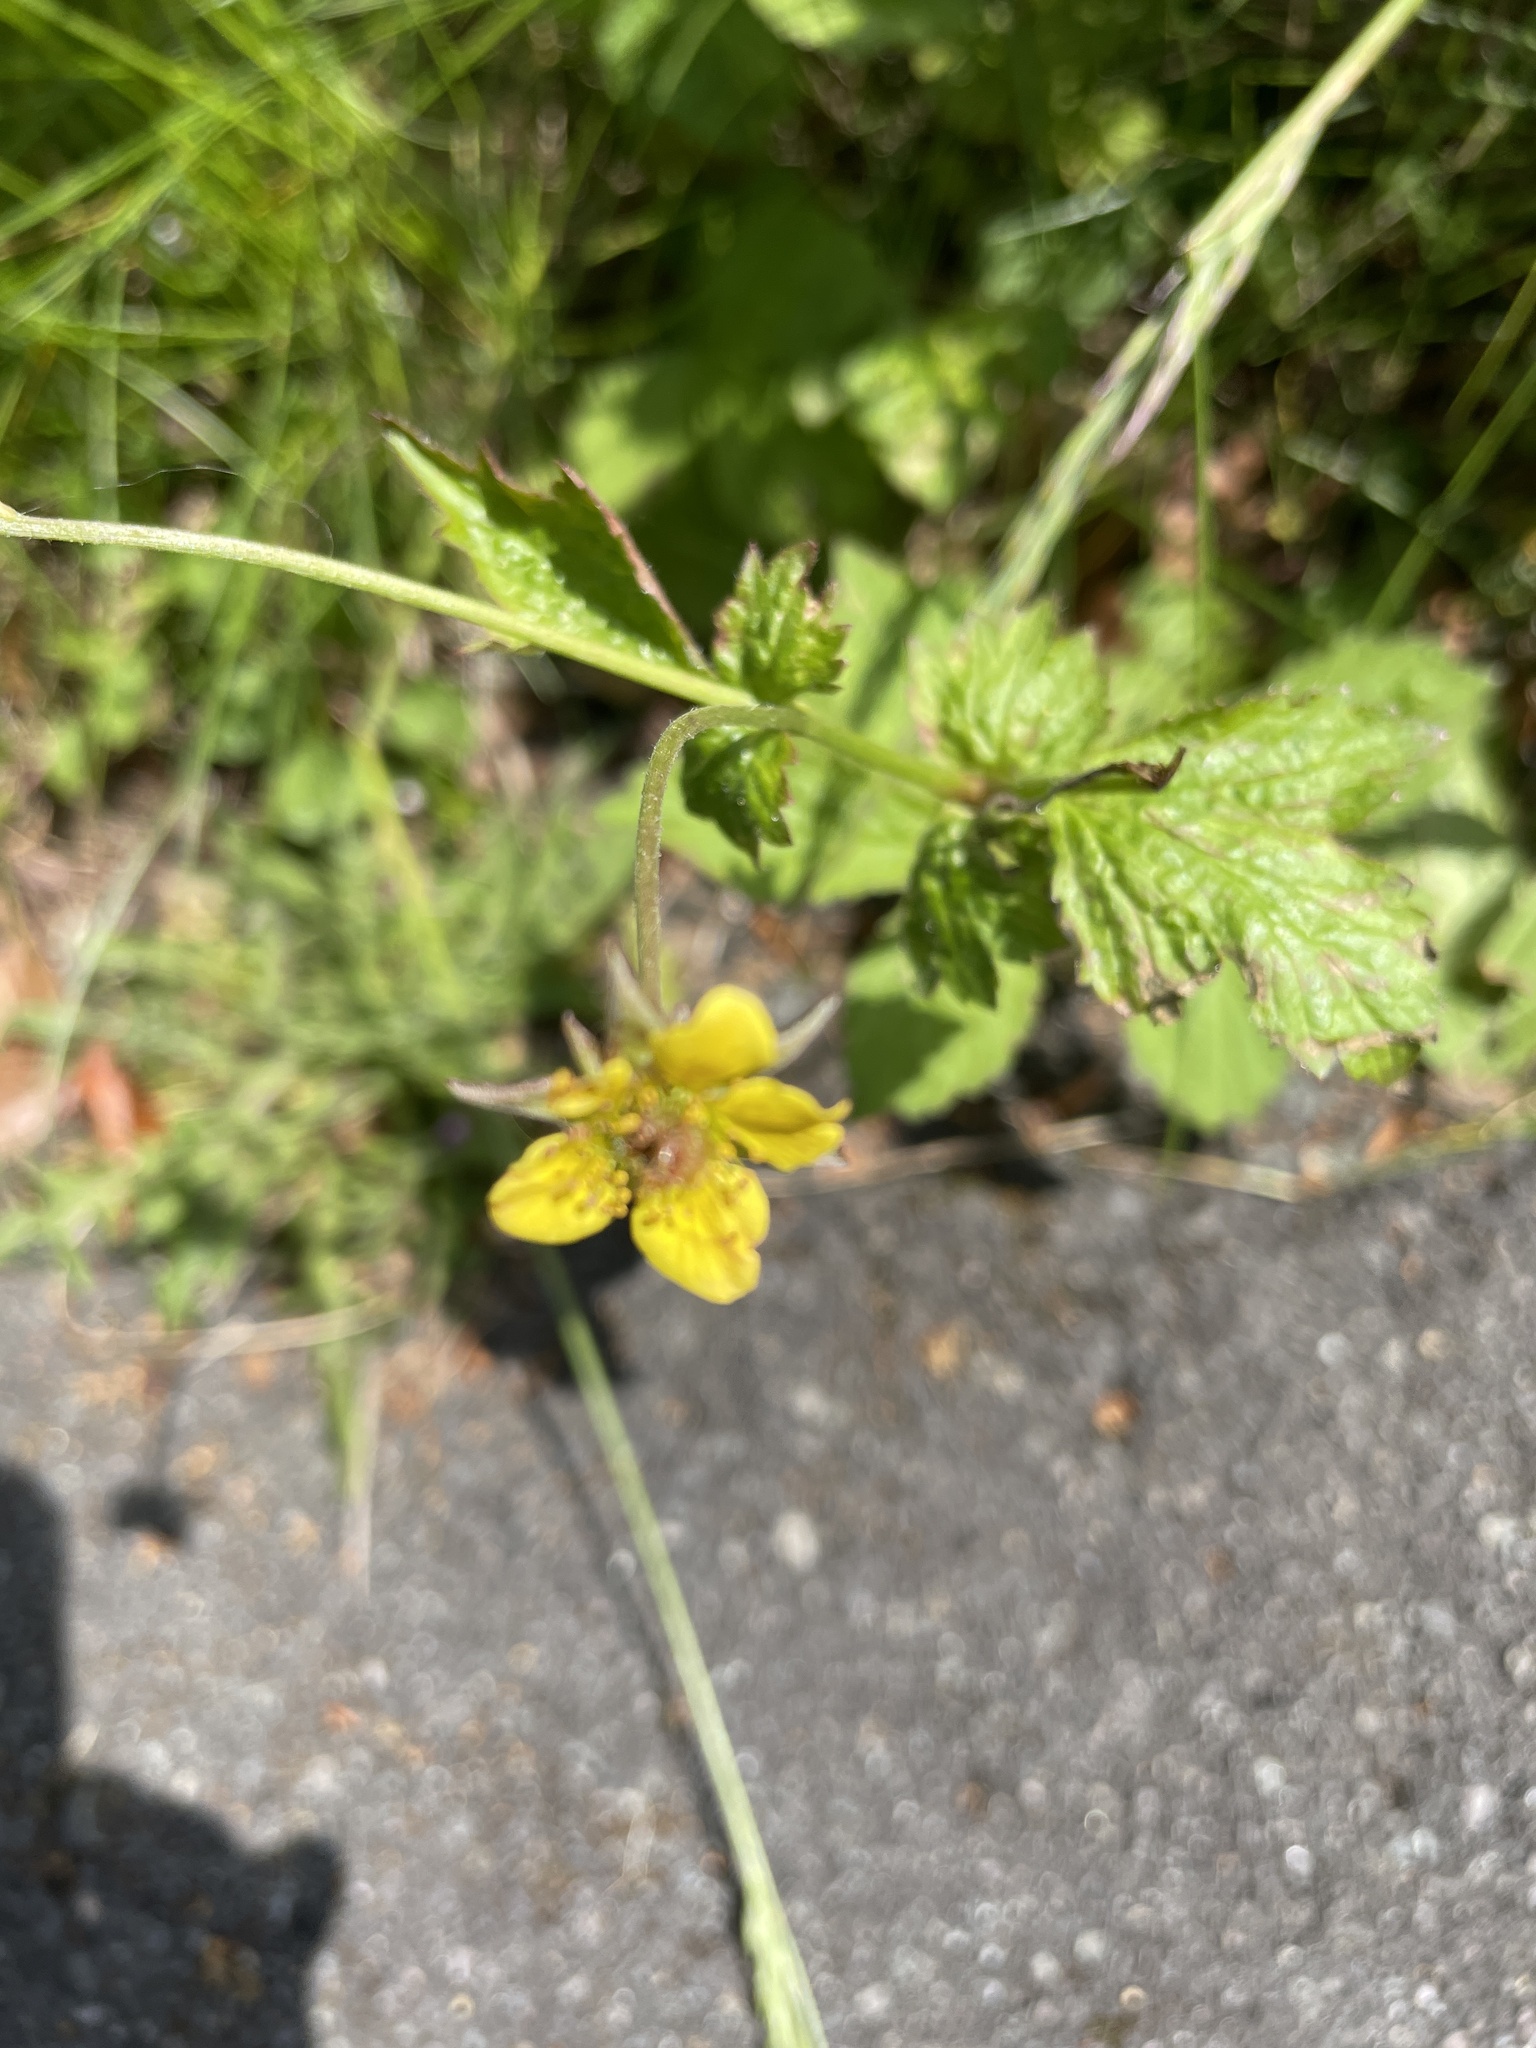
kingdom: Plantae
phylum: Tracheophyta
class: Magnoliopsida
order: Rosales
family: Rosaceae
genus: Geum
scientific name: Geum urbanum
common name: Wood avens
